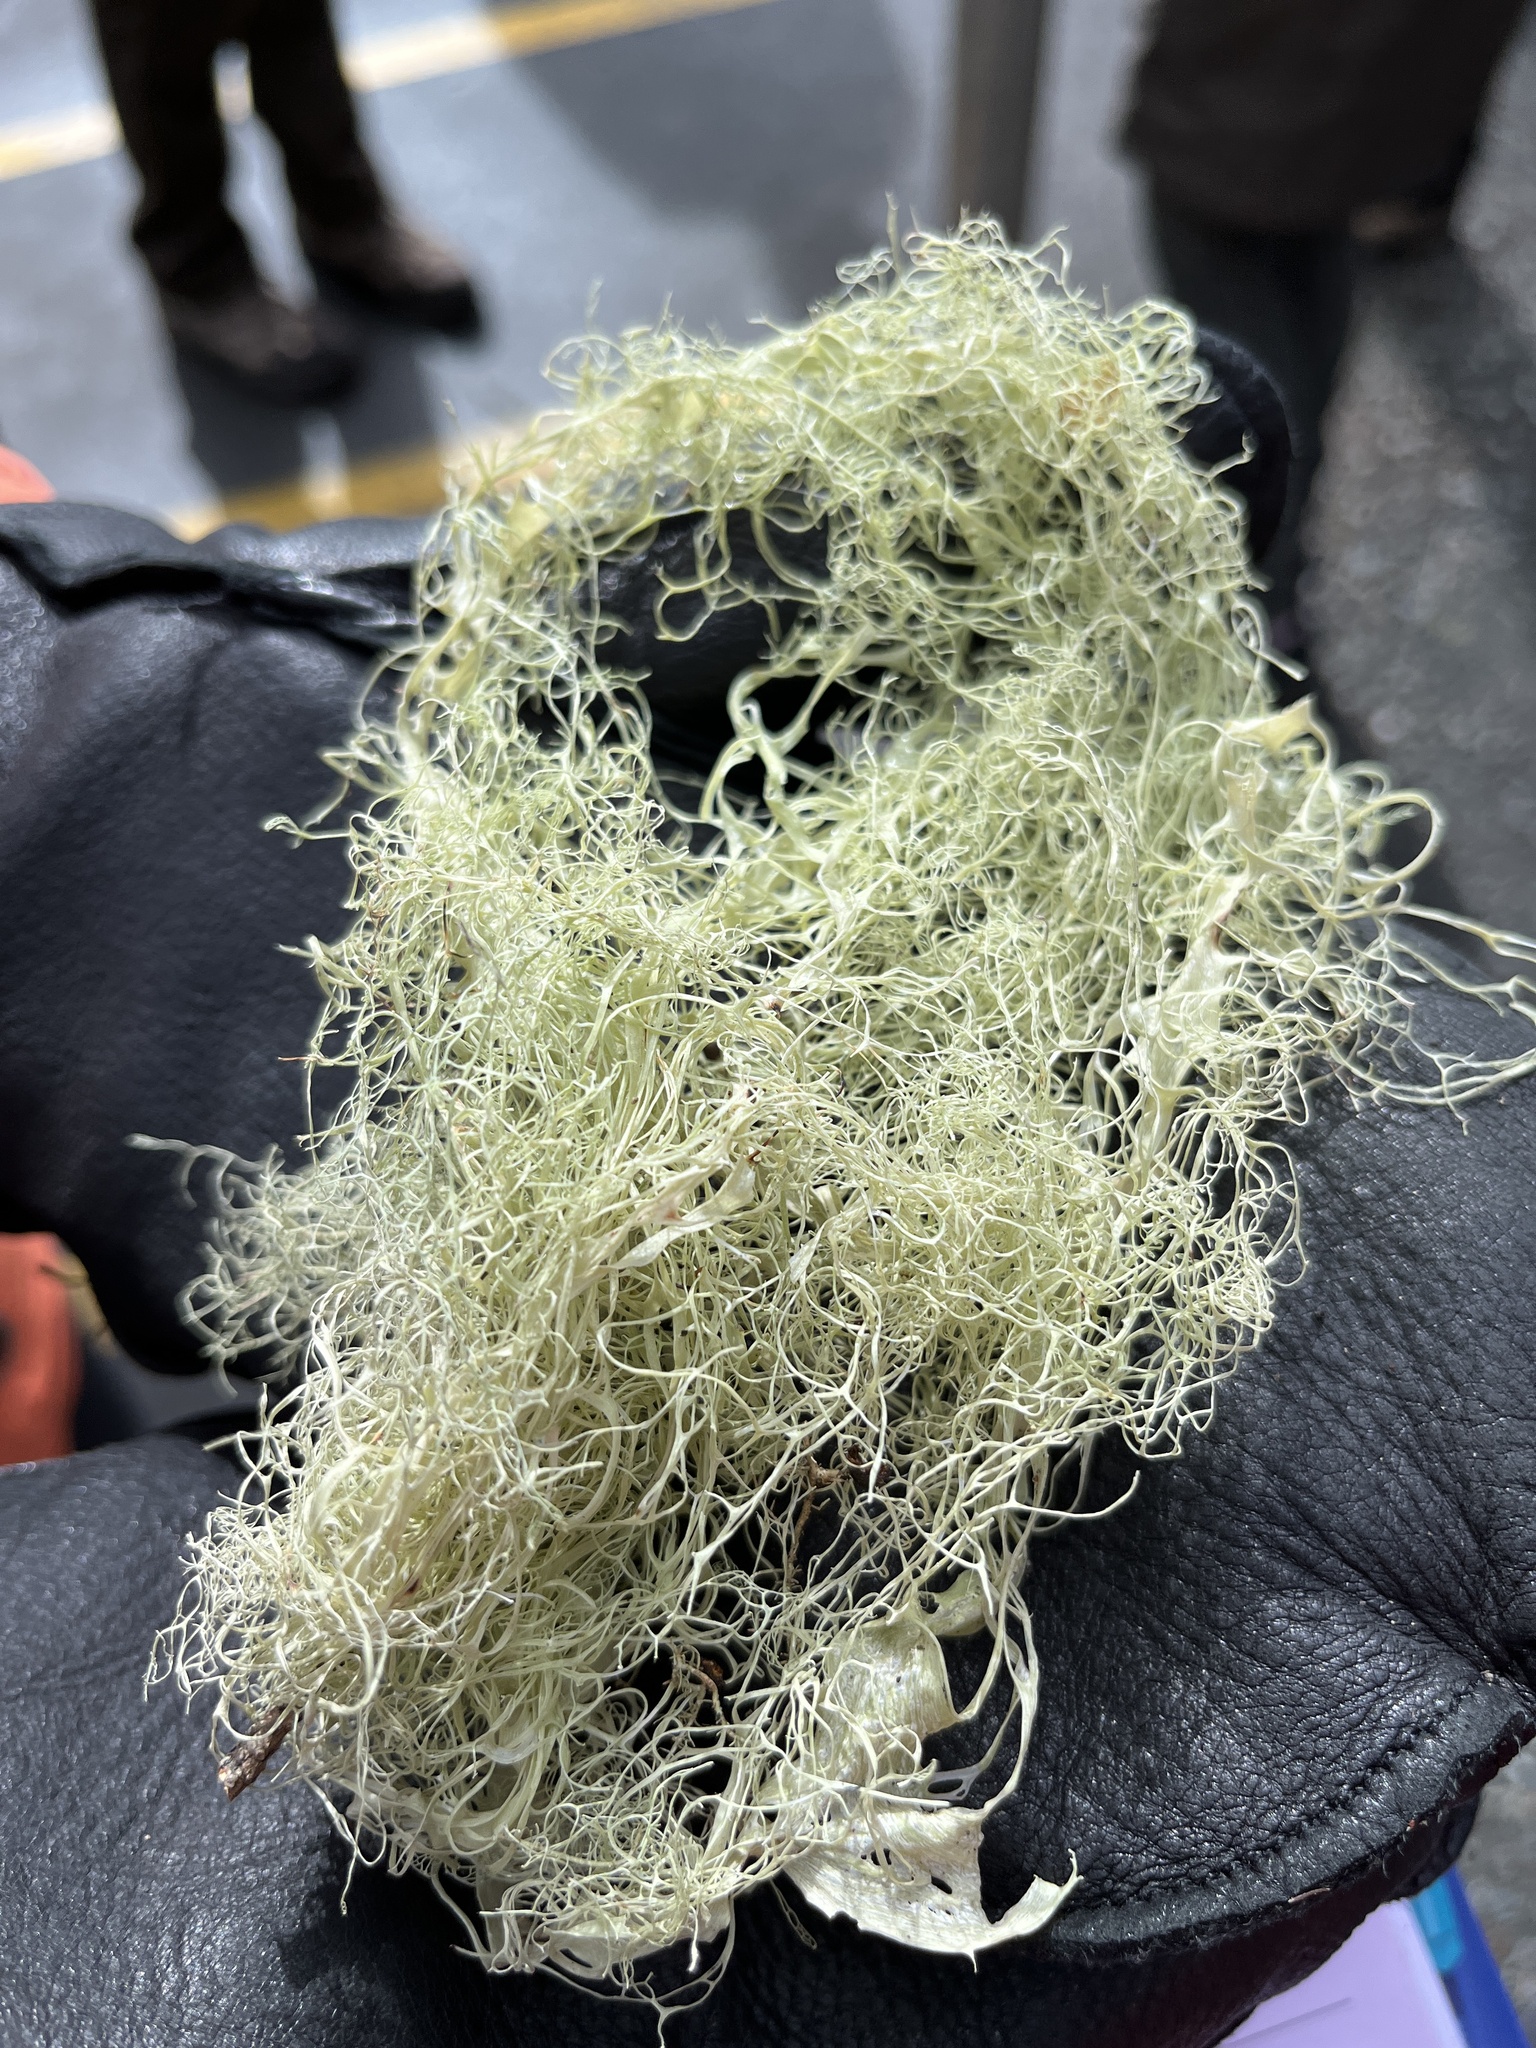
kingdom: Fungi
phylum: Ascomycota
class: Lecanoromycetes
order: Lecanorales
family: Ramalinaceae
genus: Ramalina
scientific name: Ramalina farinacea
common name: Farinose cartilage lichen
